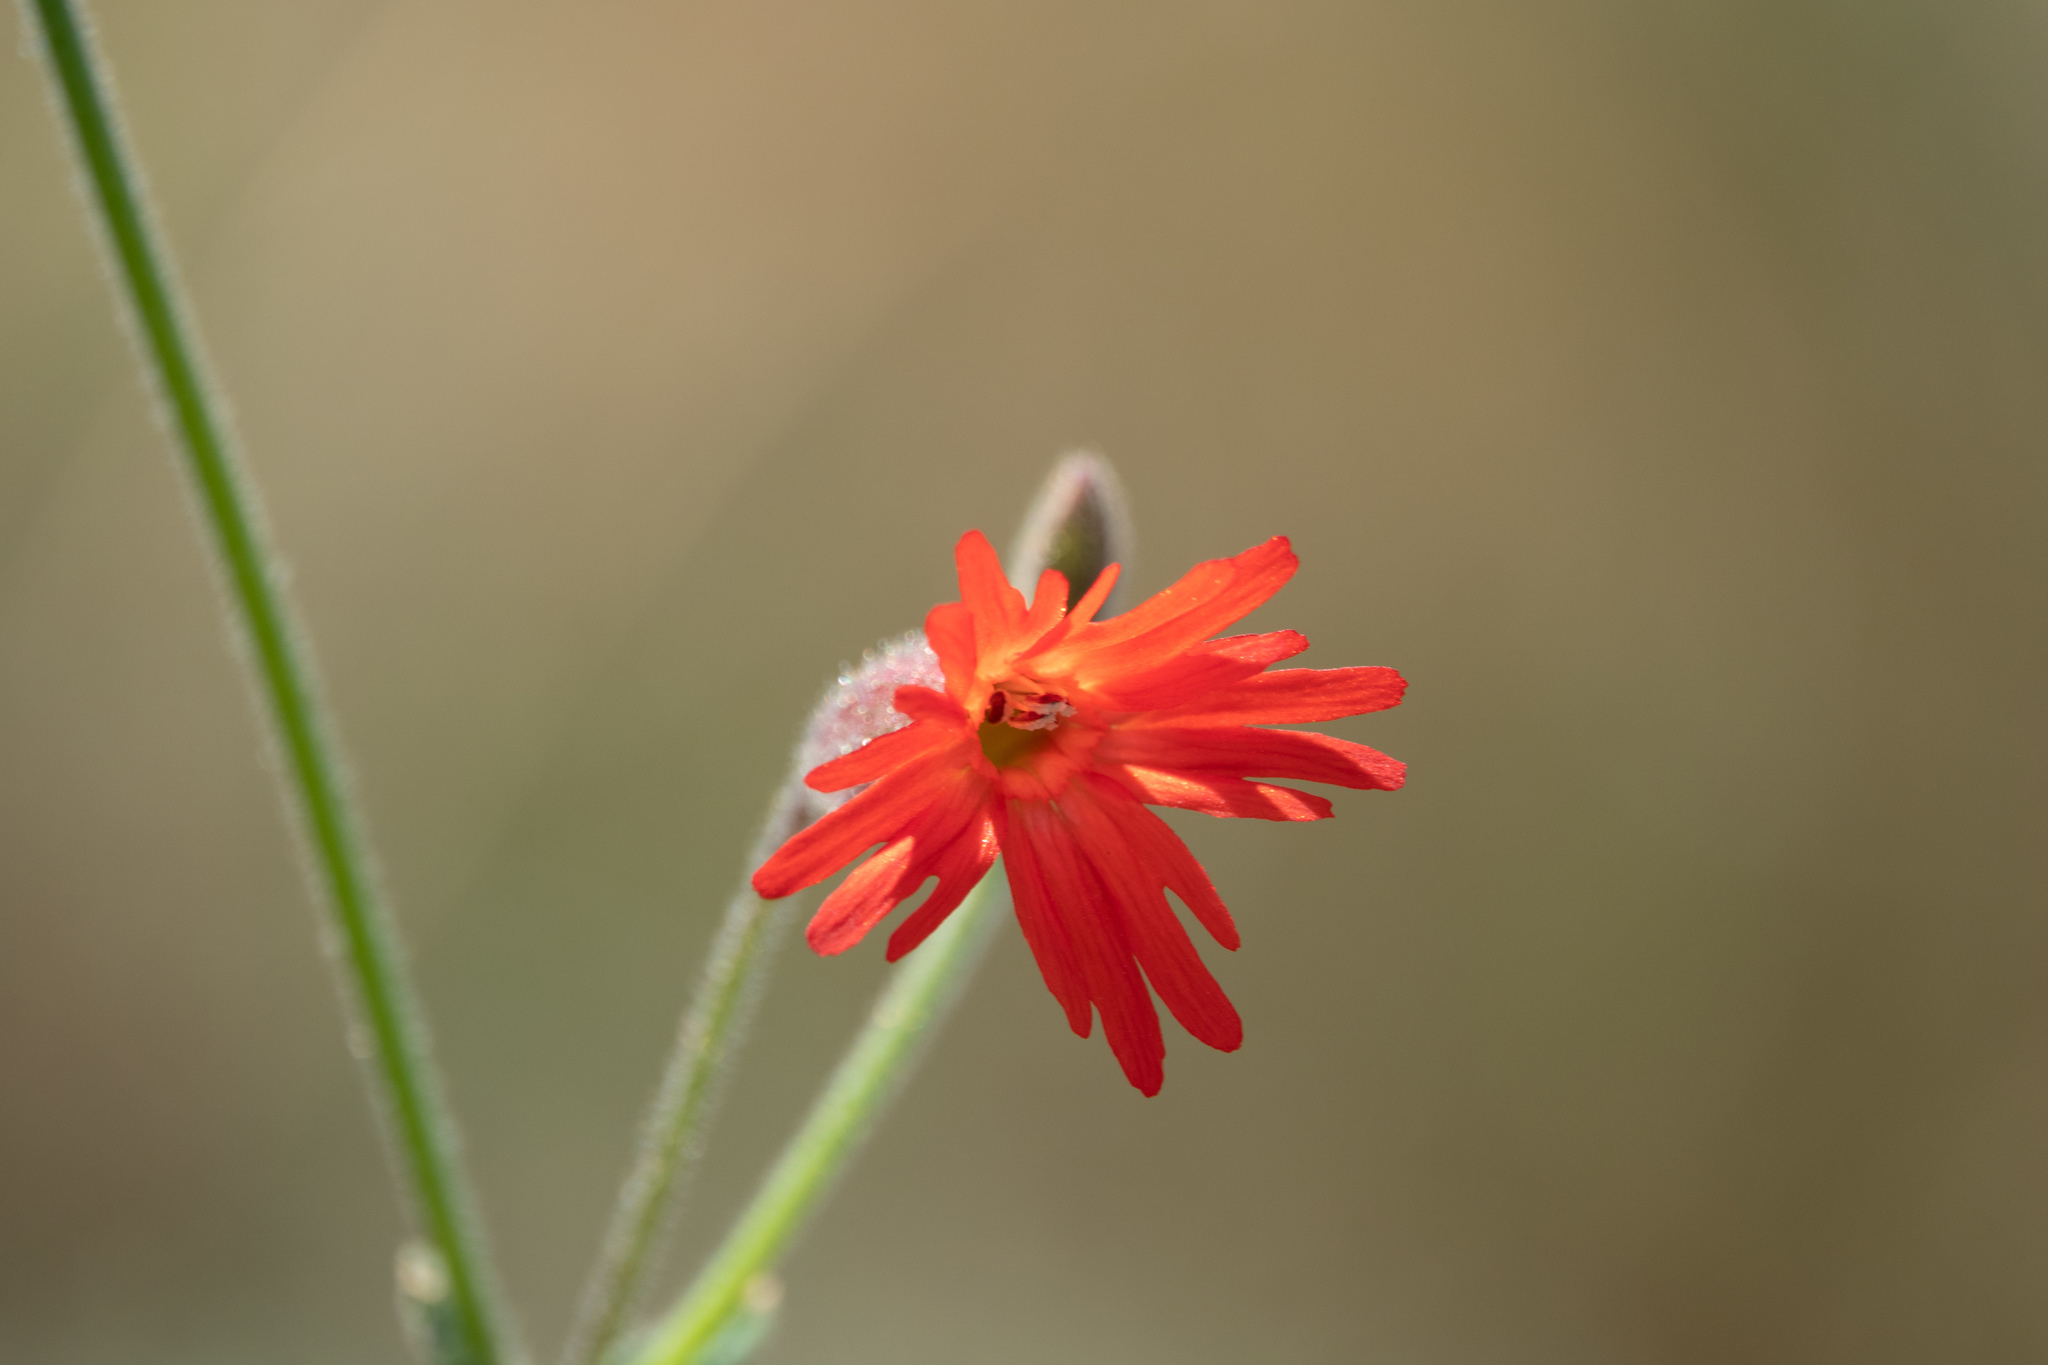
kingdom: Plantae
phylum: Tracheophyta
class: Magnoliopsida
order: Caryophyllales
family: Caryophyllaceae
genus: Silene
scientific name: Silene laciniata
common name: Indian-pink
